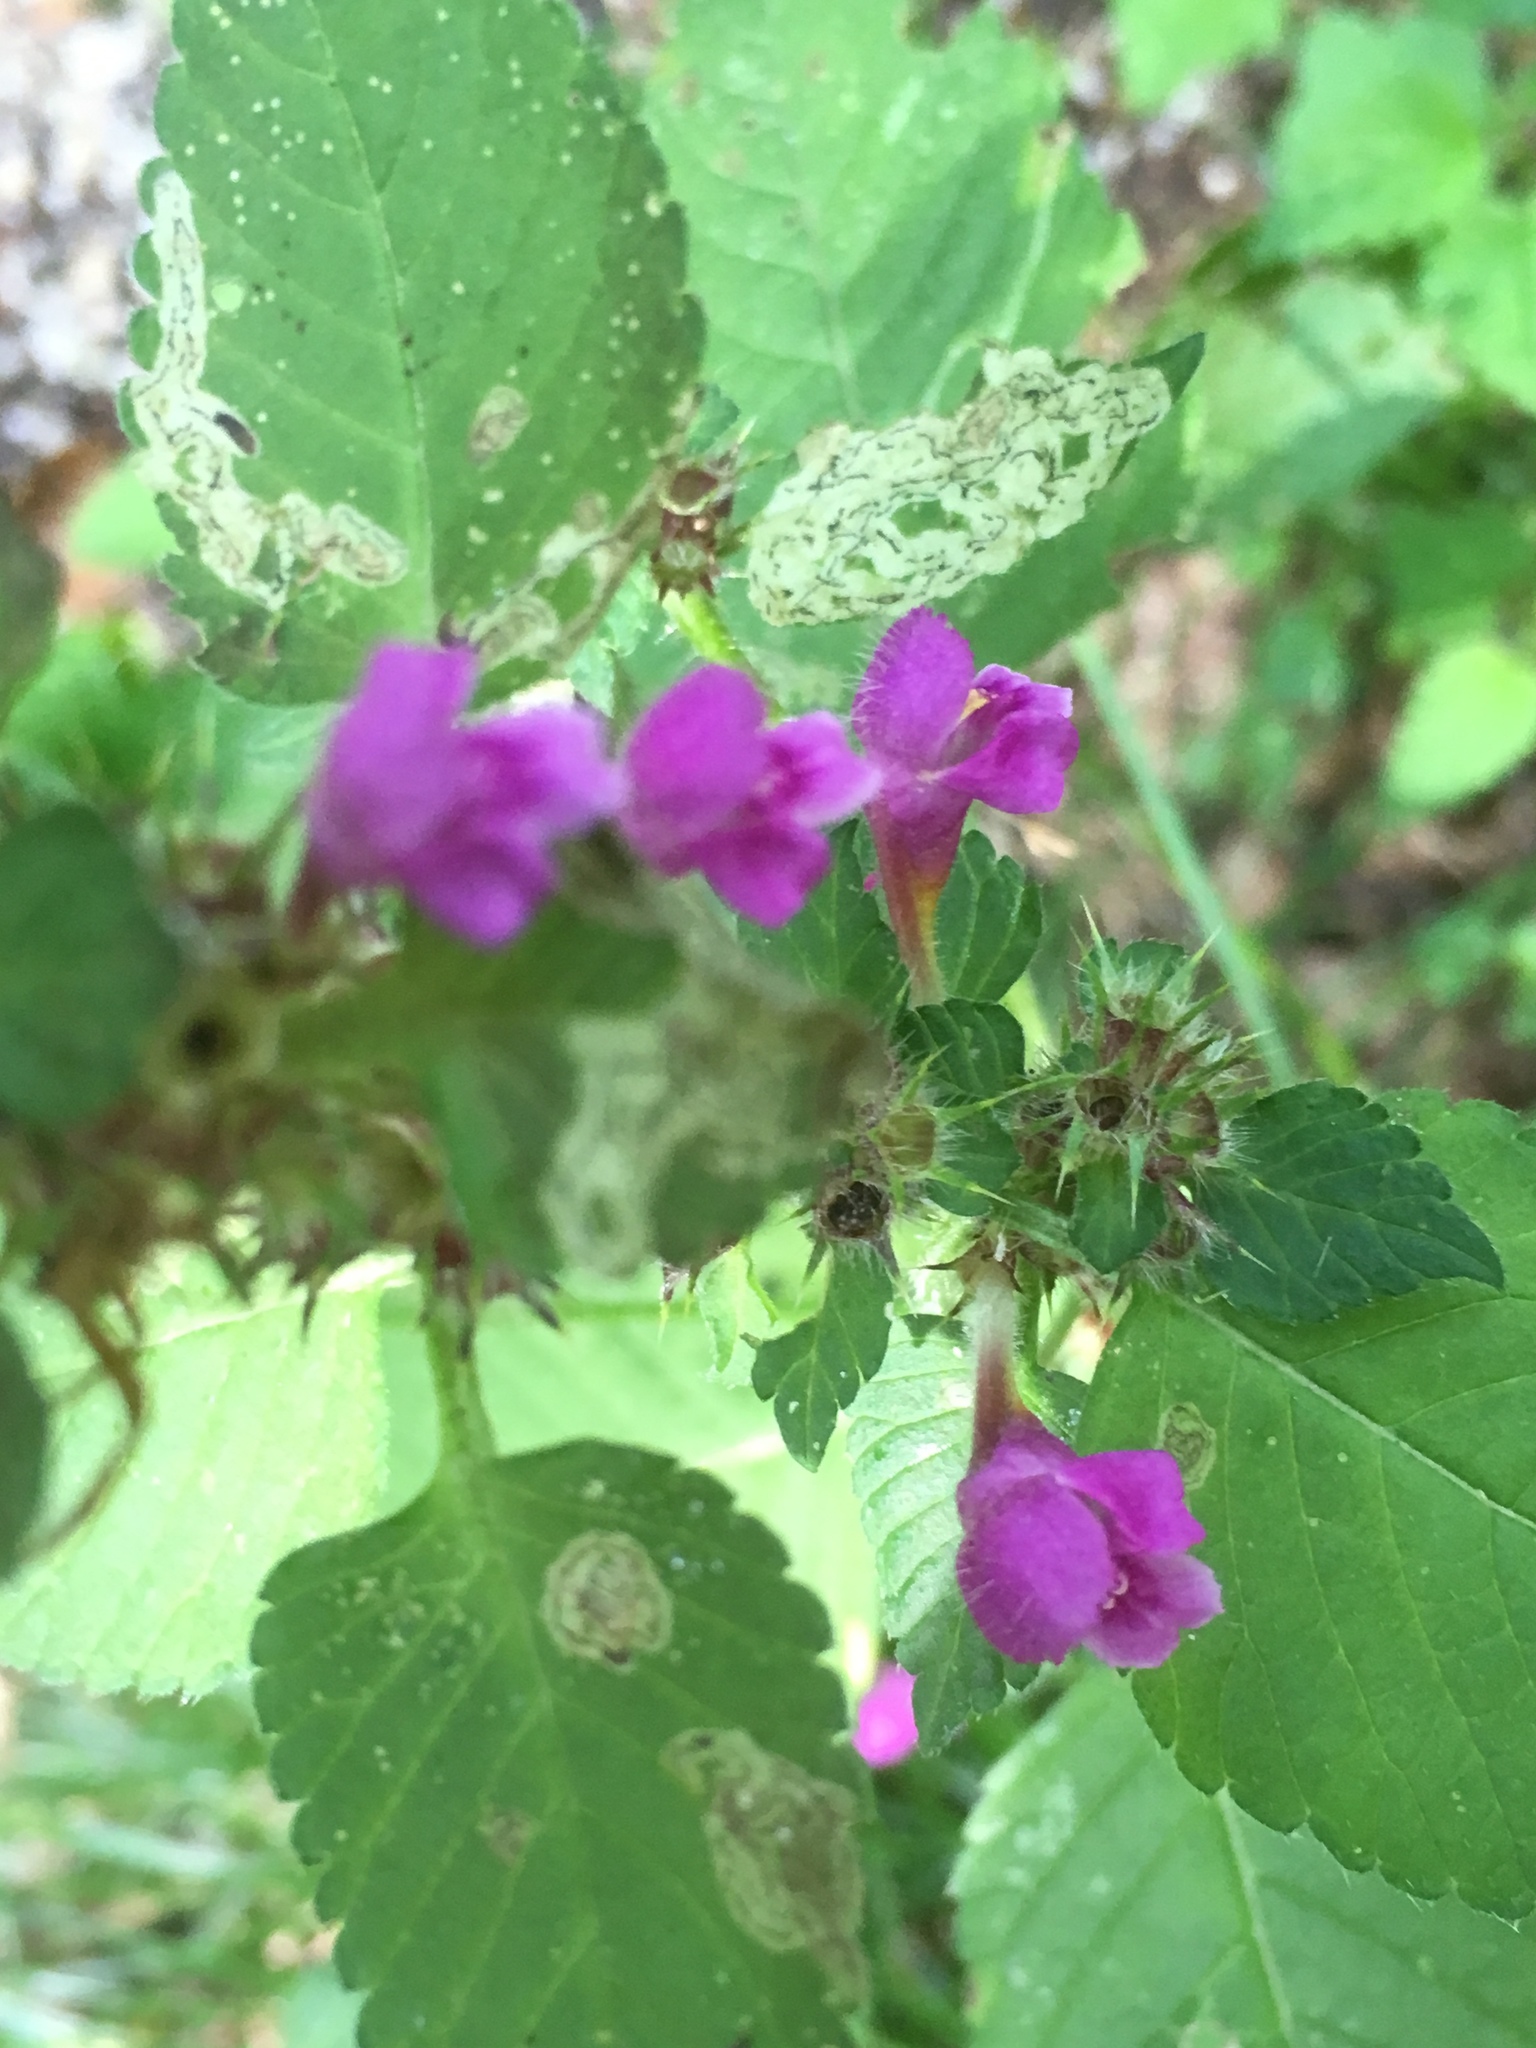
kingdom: Plantae
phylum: Tracheophyta
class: Magnoliopsida
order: Lamiales
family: Lamiaceae
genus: Galeopsis
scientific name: Galeopsis pubescens
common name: Downy hemp-nettle
